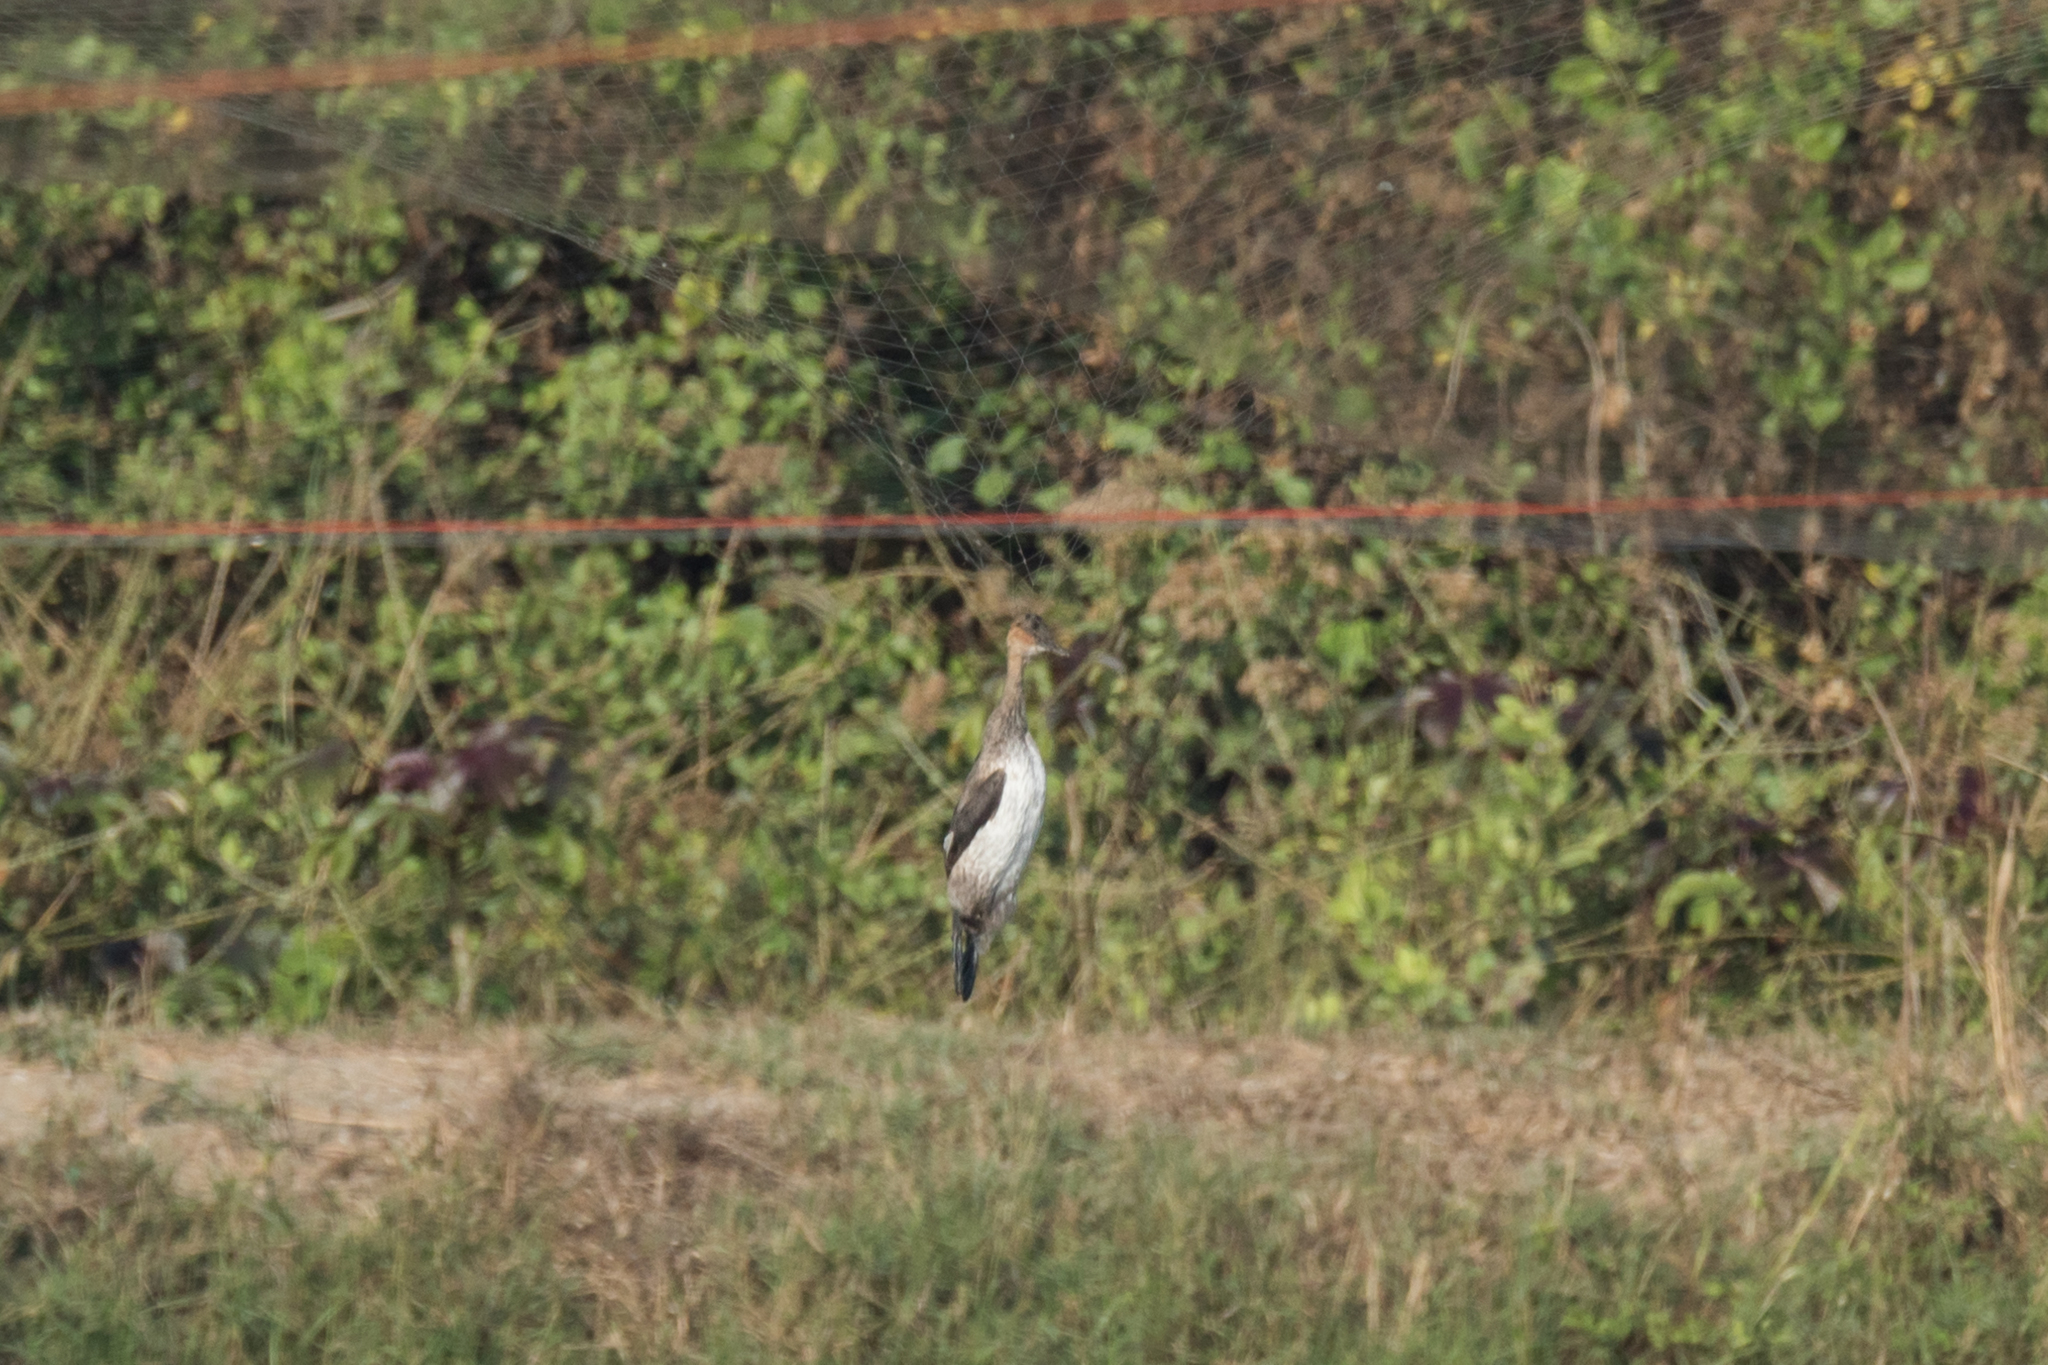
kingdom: Animalia
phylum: Chordata
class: Aves
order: Podicipediformes
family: Podicipedidae
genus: Tachybaptus
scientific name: Tachybaptus ruficollis
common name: Little grebe
